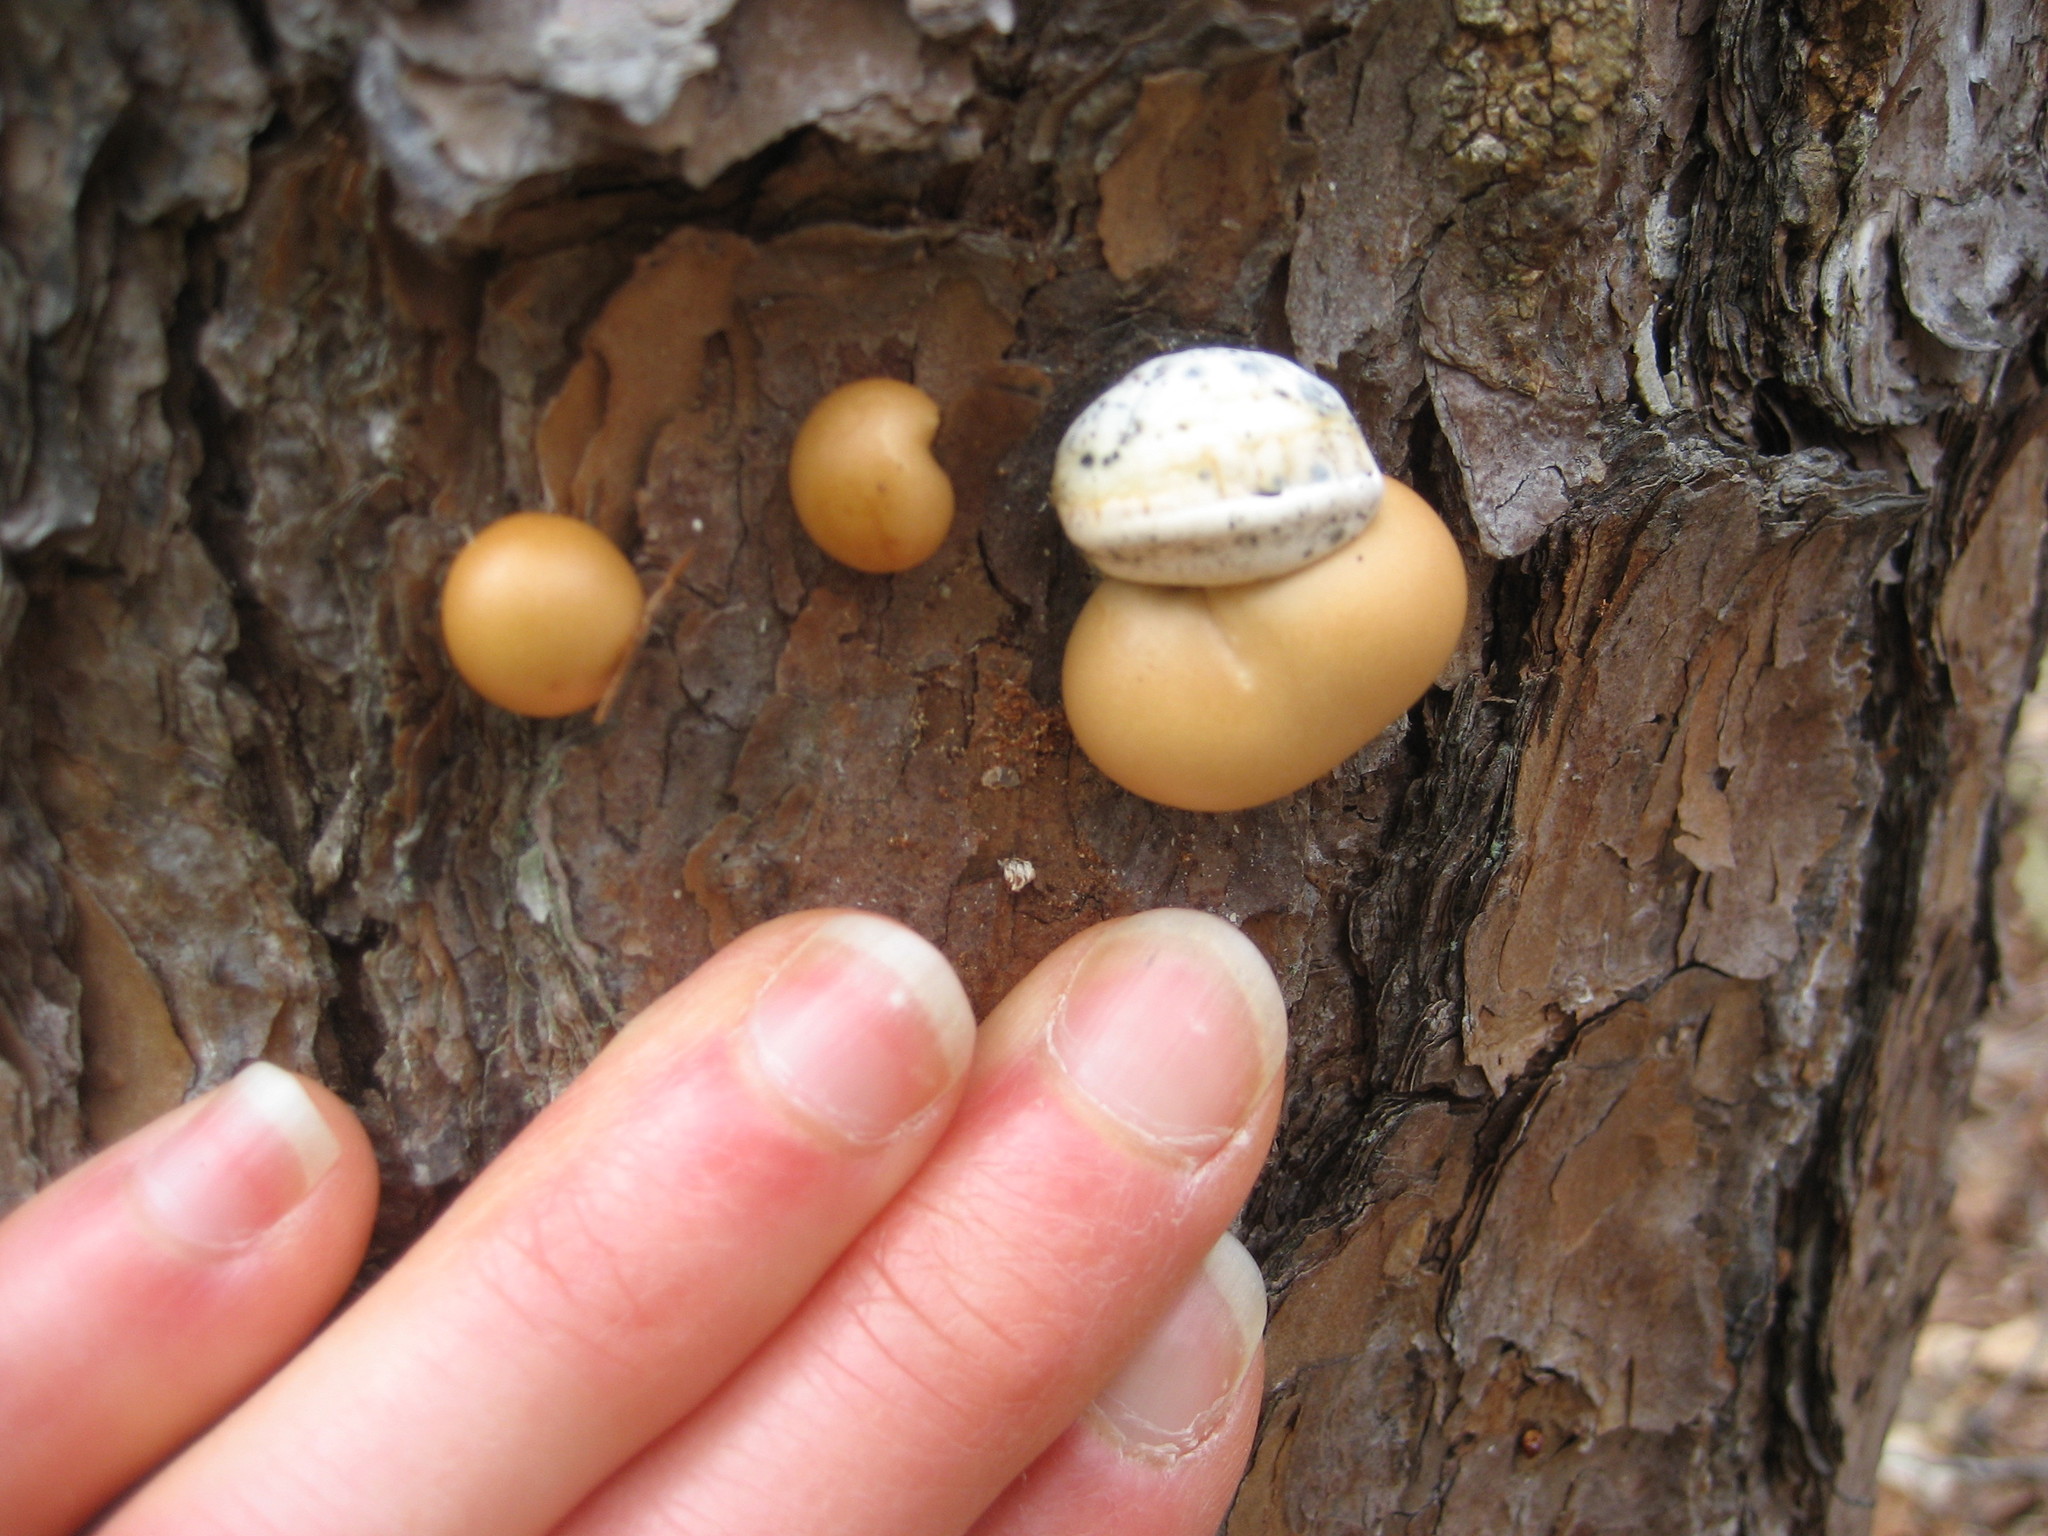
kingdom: Fungi
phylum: Basidiomycota
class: Agaricomycetes
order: Polyporales
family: Polyporaceae
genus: Cryptoporus
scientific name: Cryptoporus volvatus
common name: Veiled polypore
